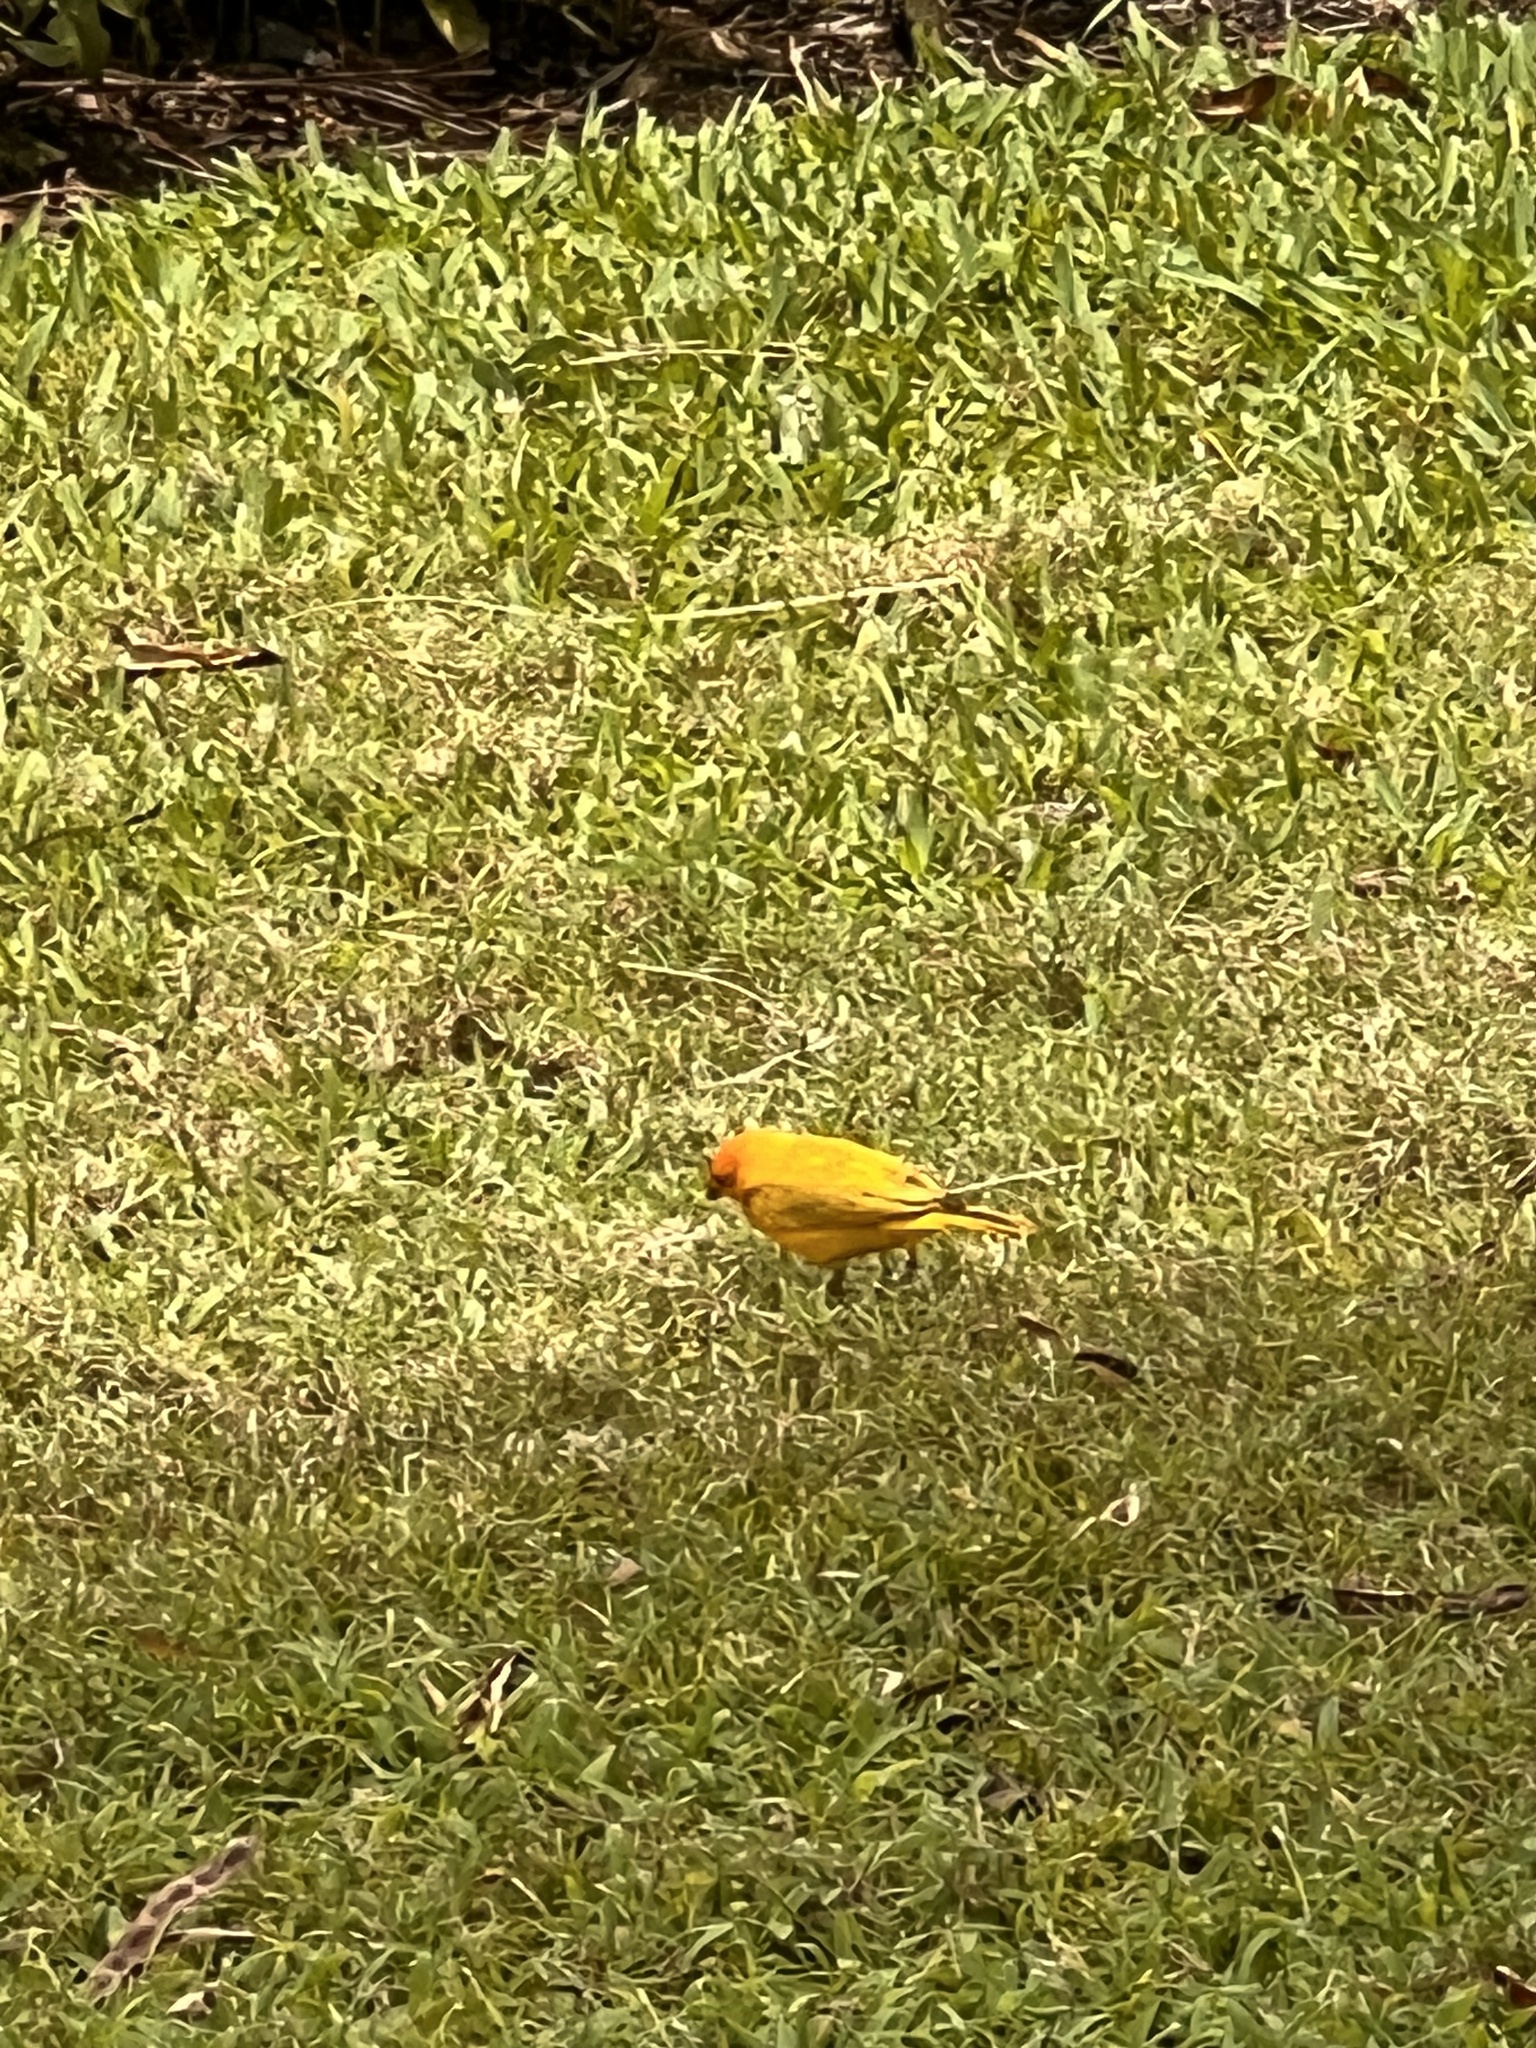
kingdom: Animalia
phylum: Chordata
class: Aves
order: Passeriformes
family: Thraupidae
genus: Sicalis
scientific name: Sicalis flaveola
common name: Saffron finch
